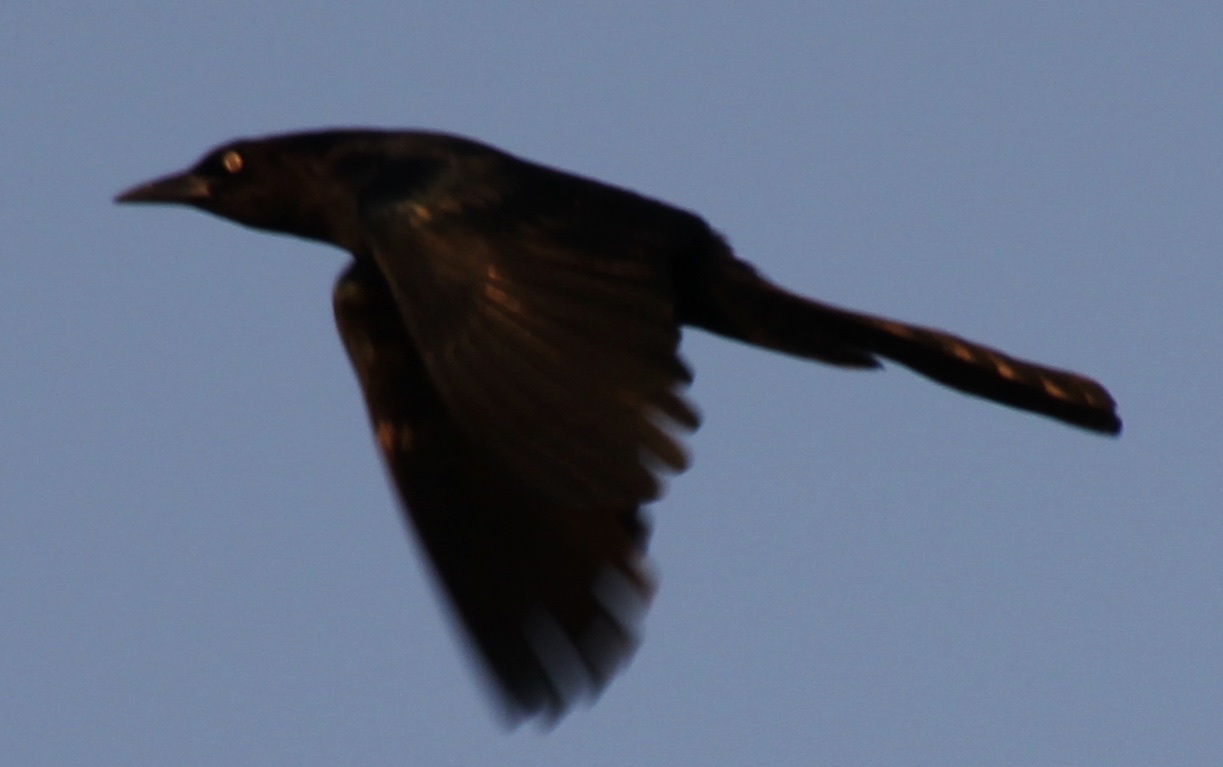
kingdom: Animalia
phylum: Chordata
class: Aves
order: Passeriformes
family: Icteridae
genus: Quiscalus
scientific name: Quiscalus major
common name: Boat-tailed grackle
